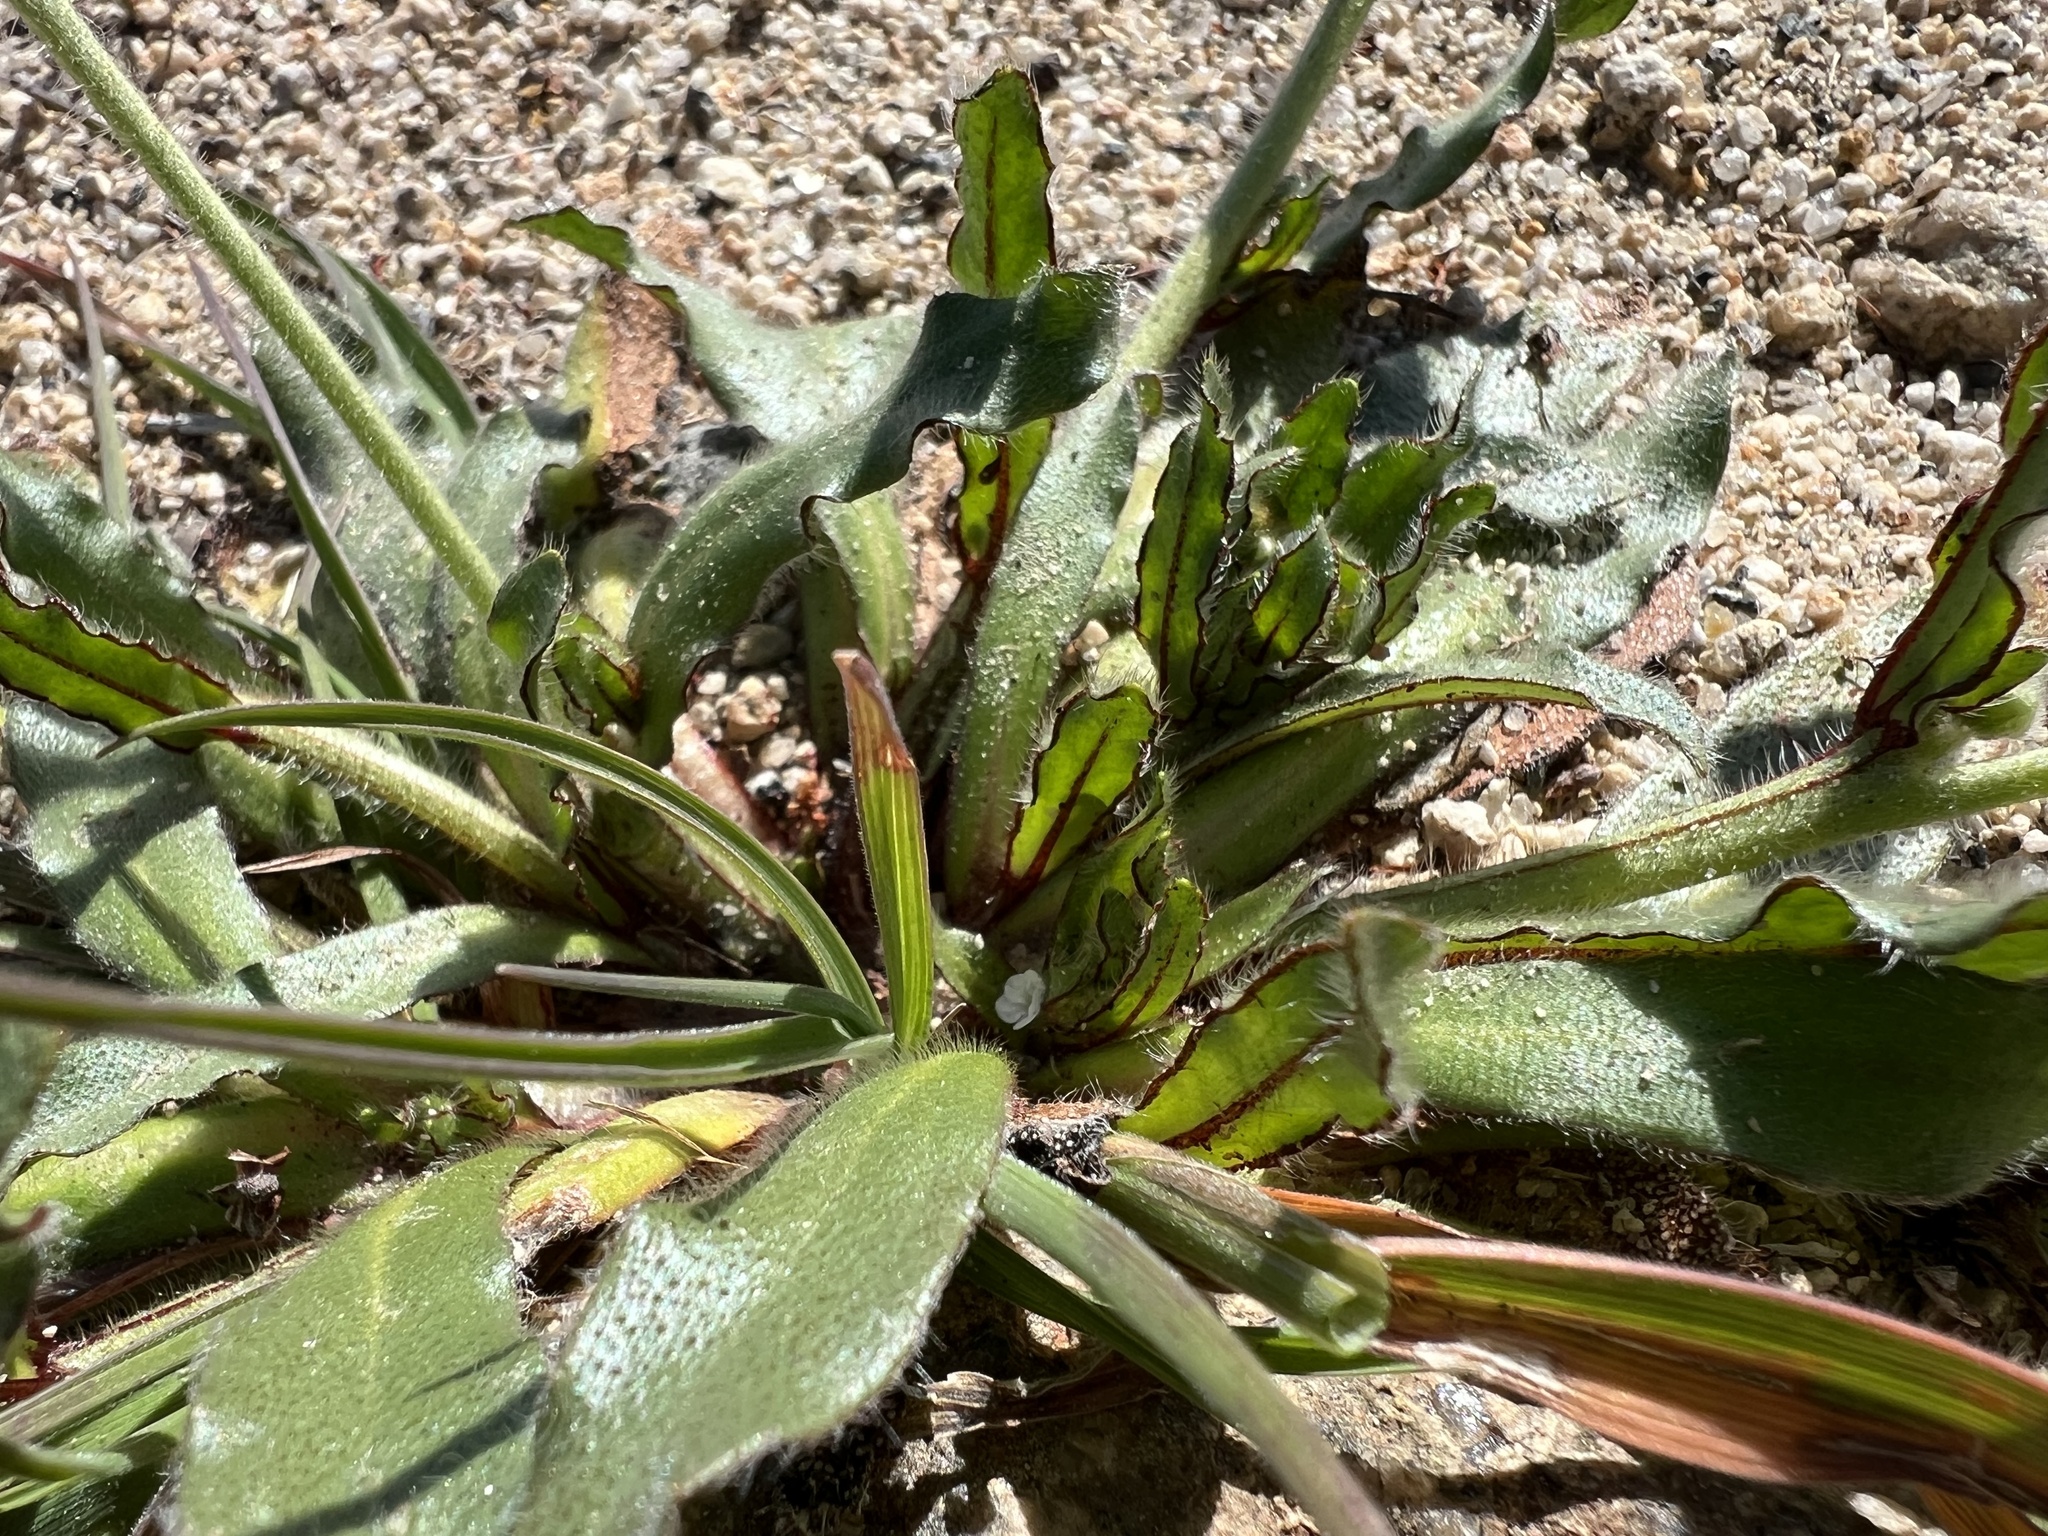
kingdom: Plantae
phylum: Tracheophyta
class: Magnoliopsida
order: Boraginales
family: Boraginaceae
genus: Plagiobothrys
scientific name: Plagiobothrys arizonicus
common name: Arizona popcorn-flower
